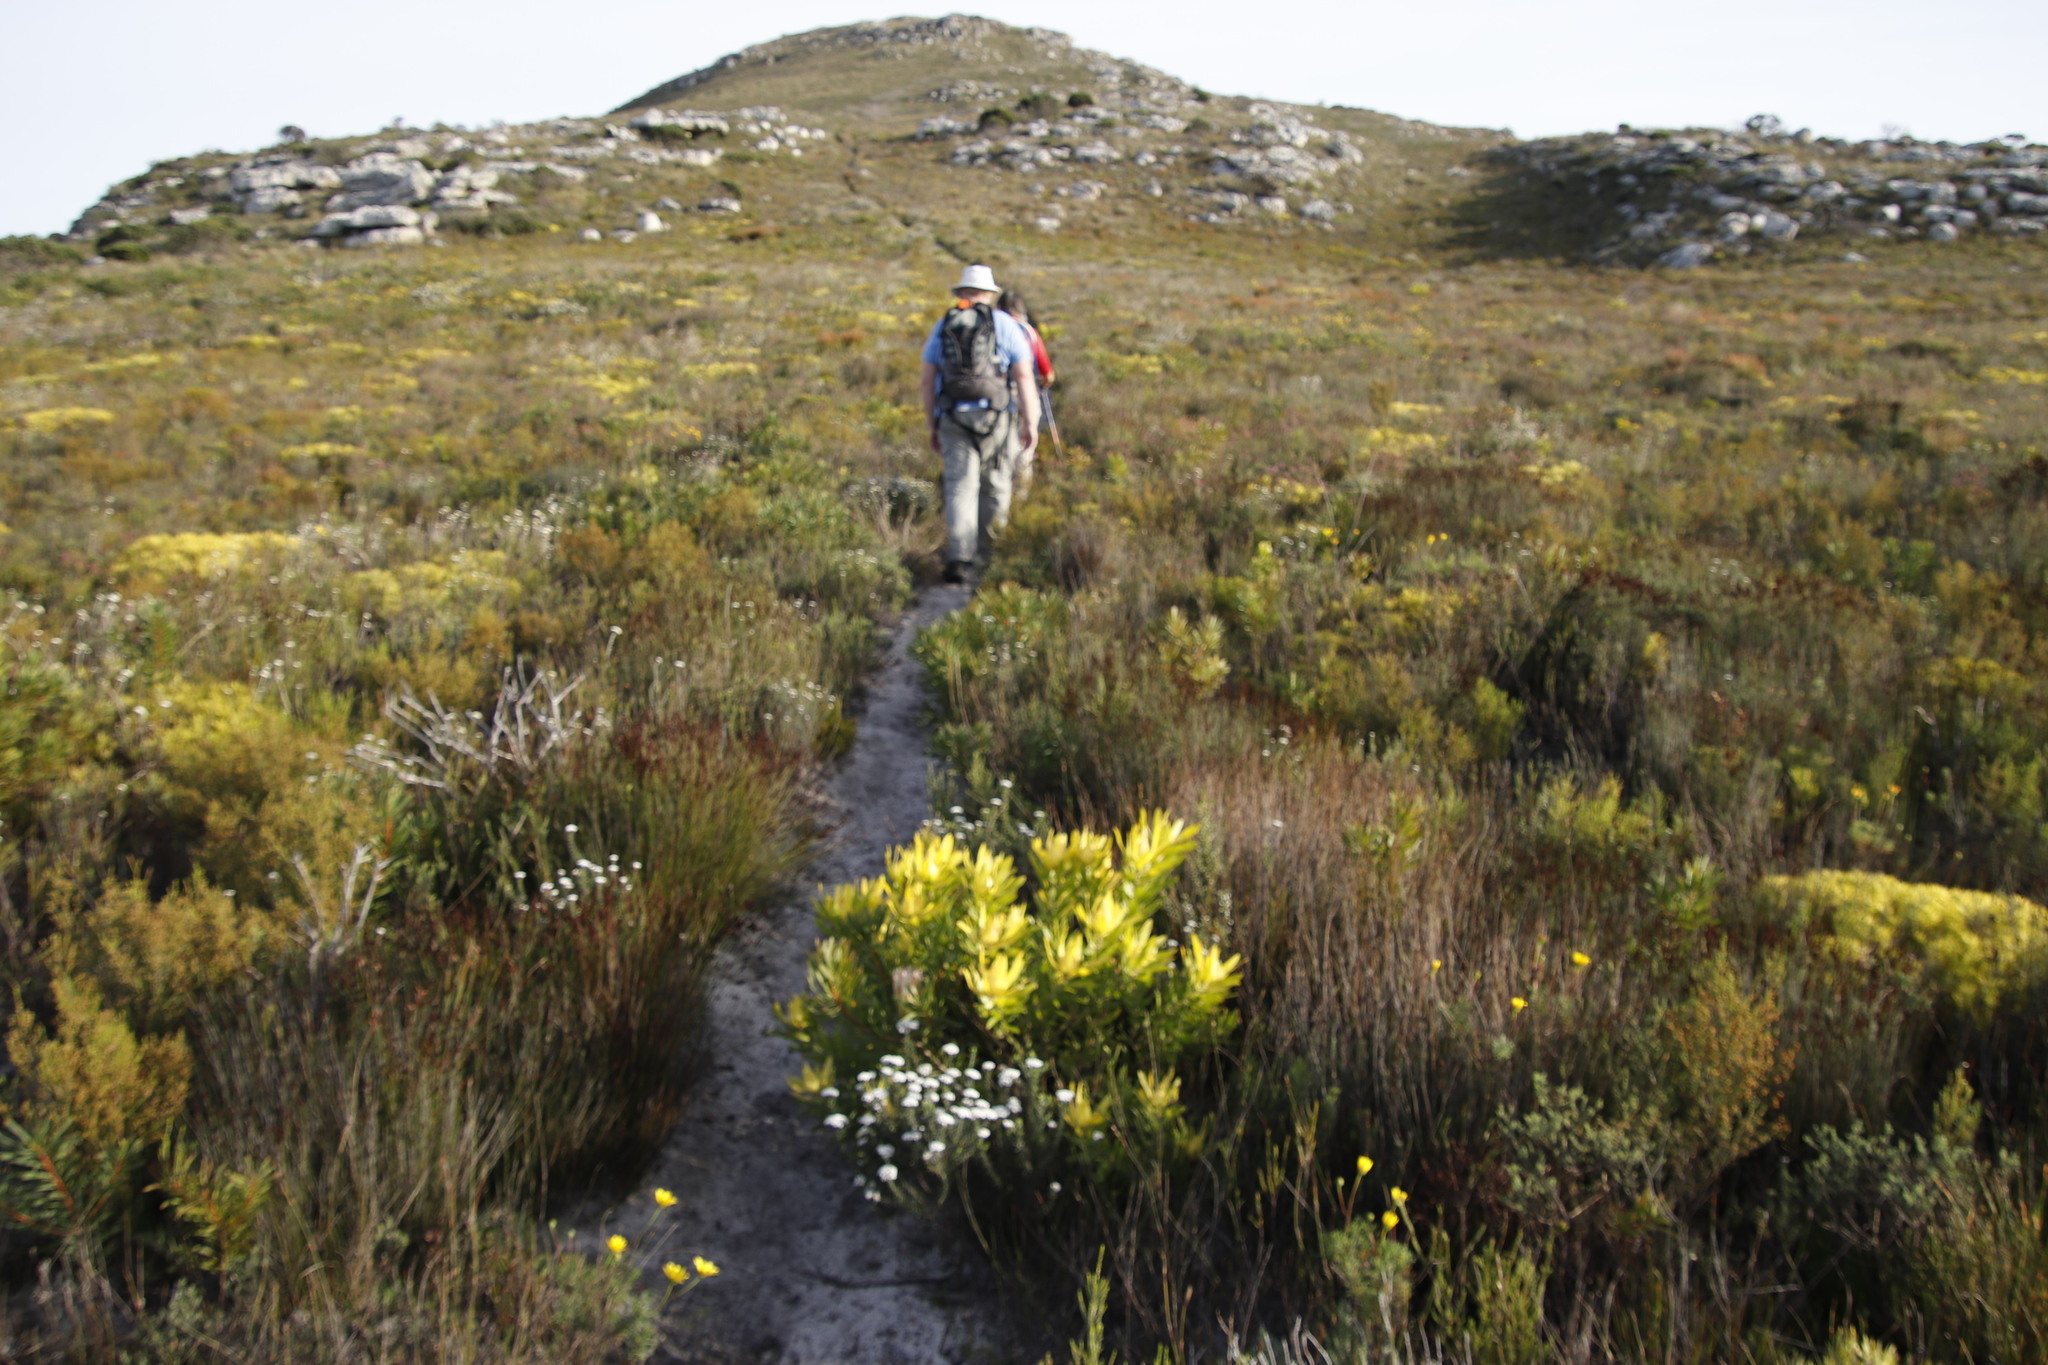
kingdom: Plantae
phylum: Tracheophyta
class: Magnoliopsida
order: Proteales
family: Proteaceae
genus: Leucadendron
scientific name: Leucadendron laureolum
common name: Golden sunshinebush
